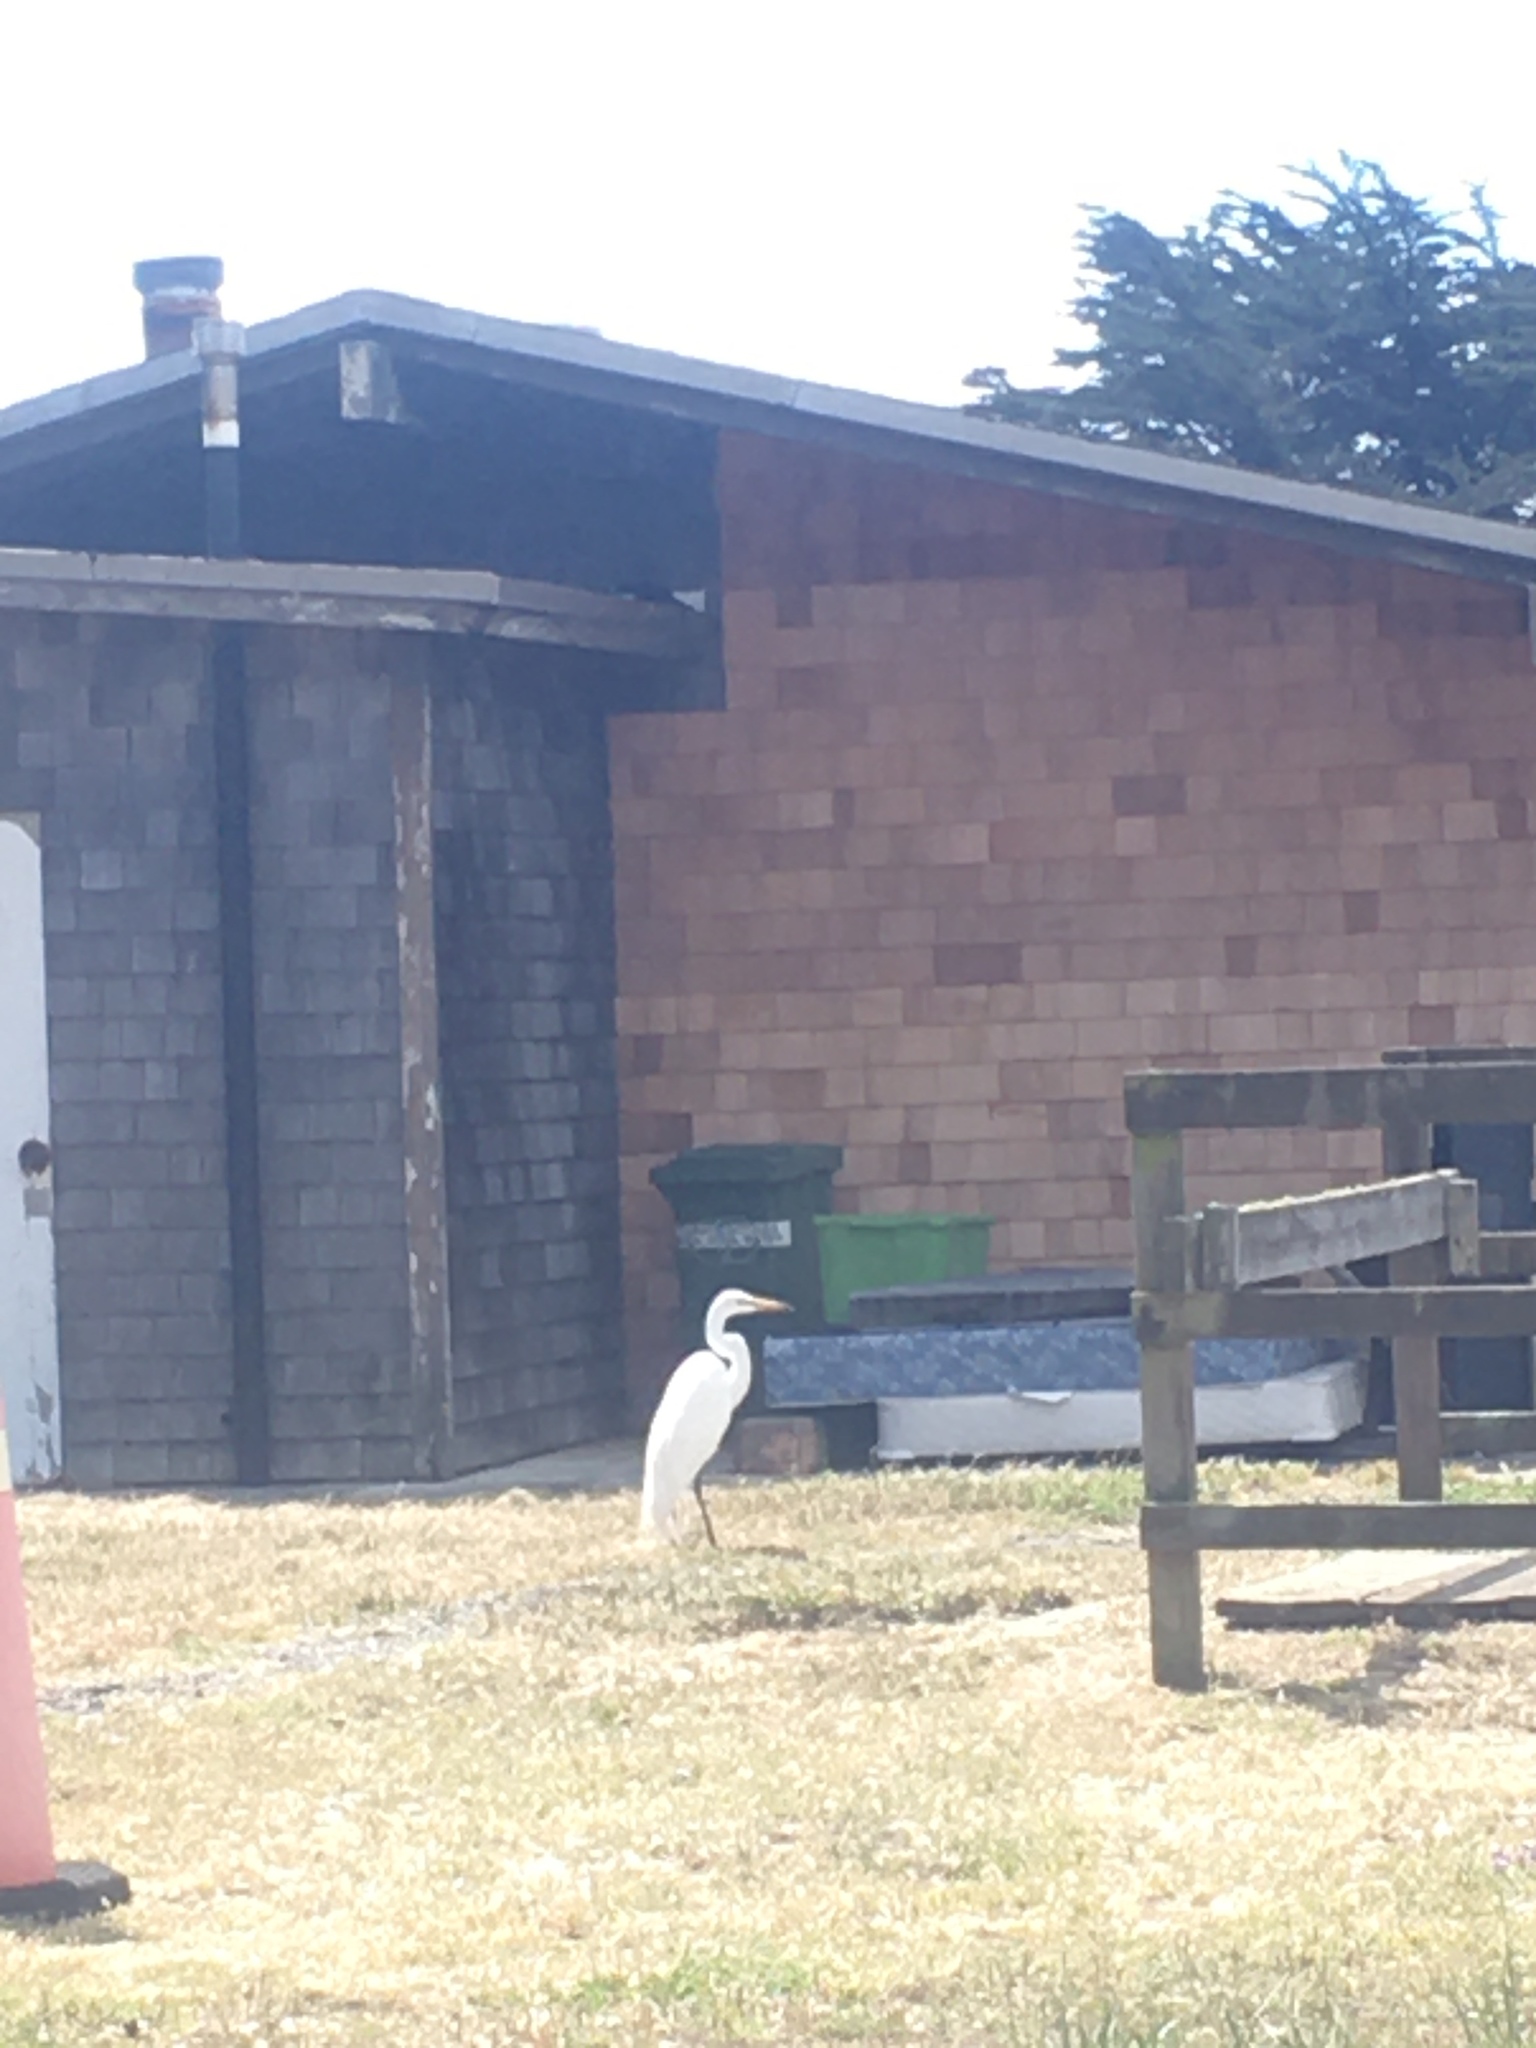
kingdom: Animalia
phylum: Chordata
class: Aves
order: Pelecaniformes
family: Ardeidae
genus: Ardea
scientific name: Ardea alba
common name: Great egret
